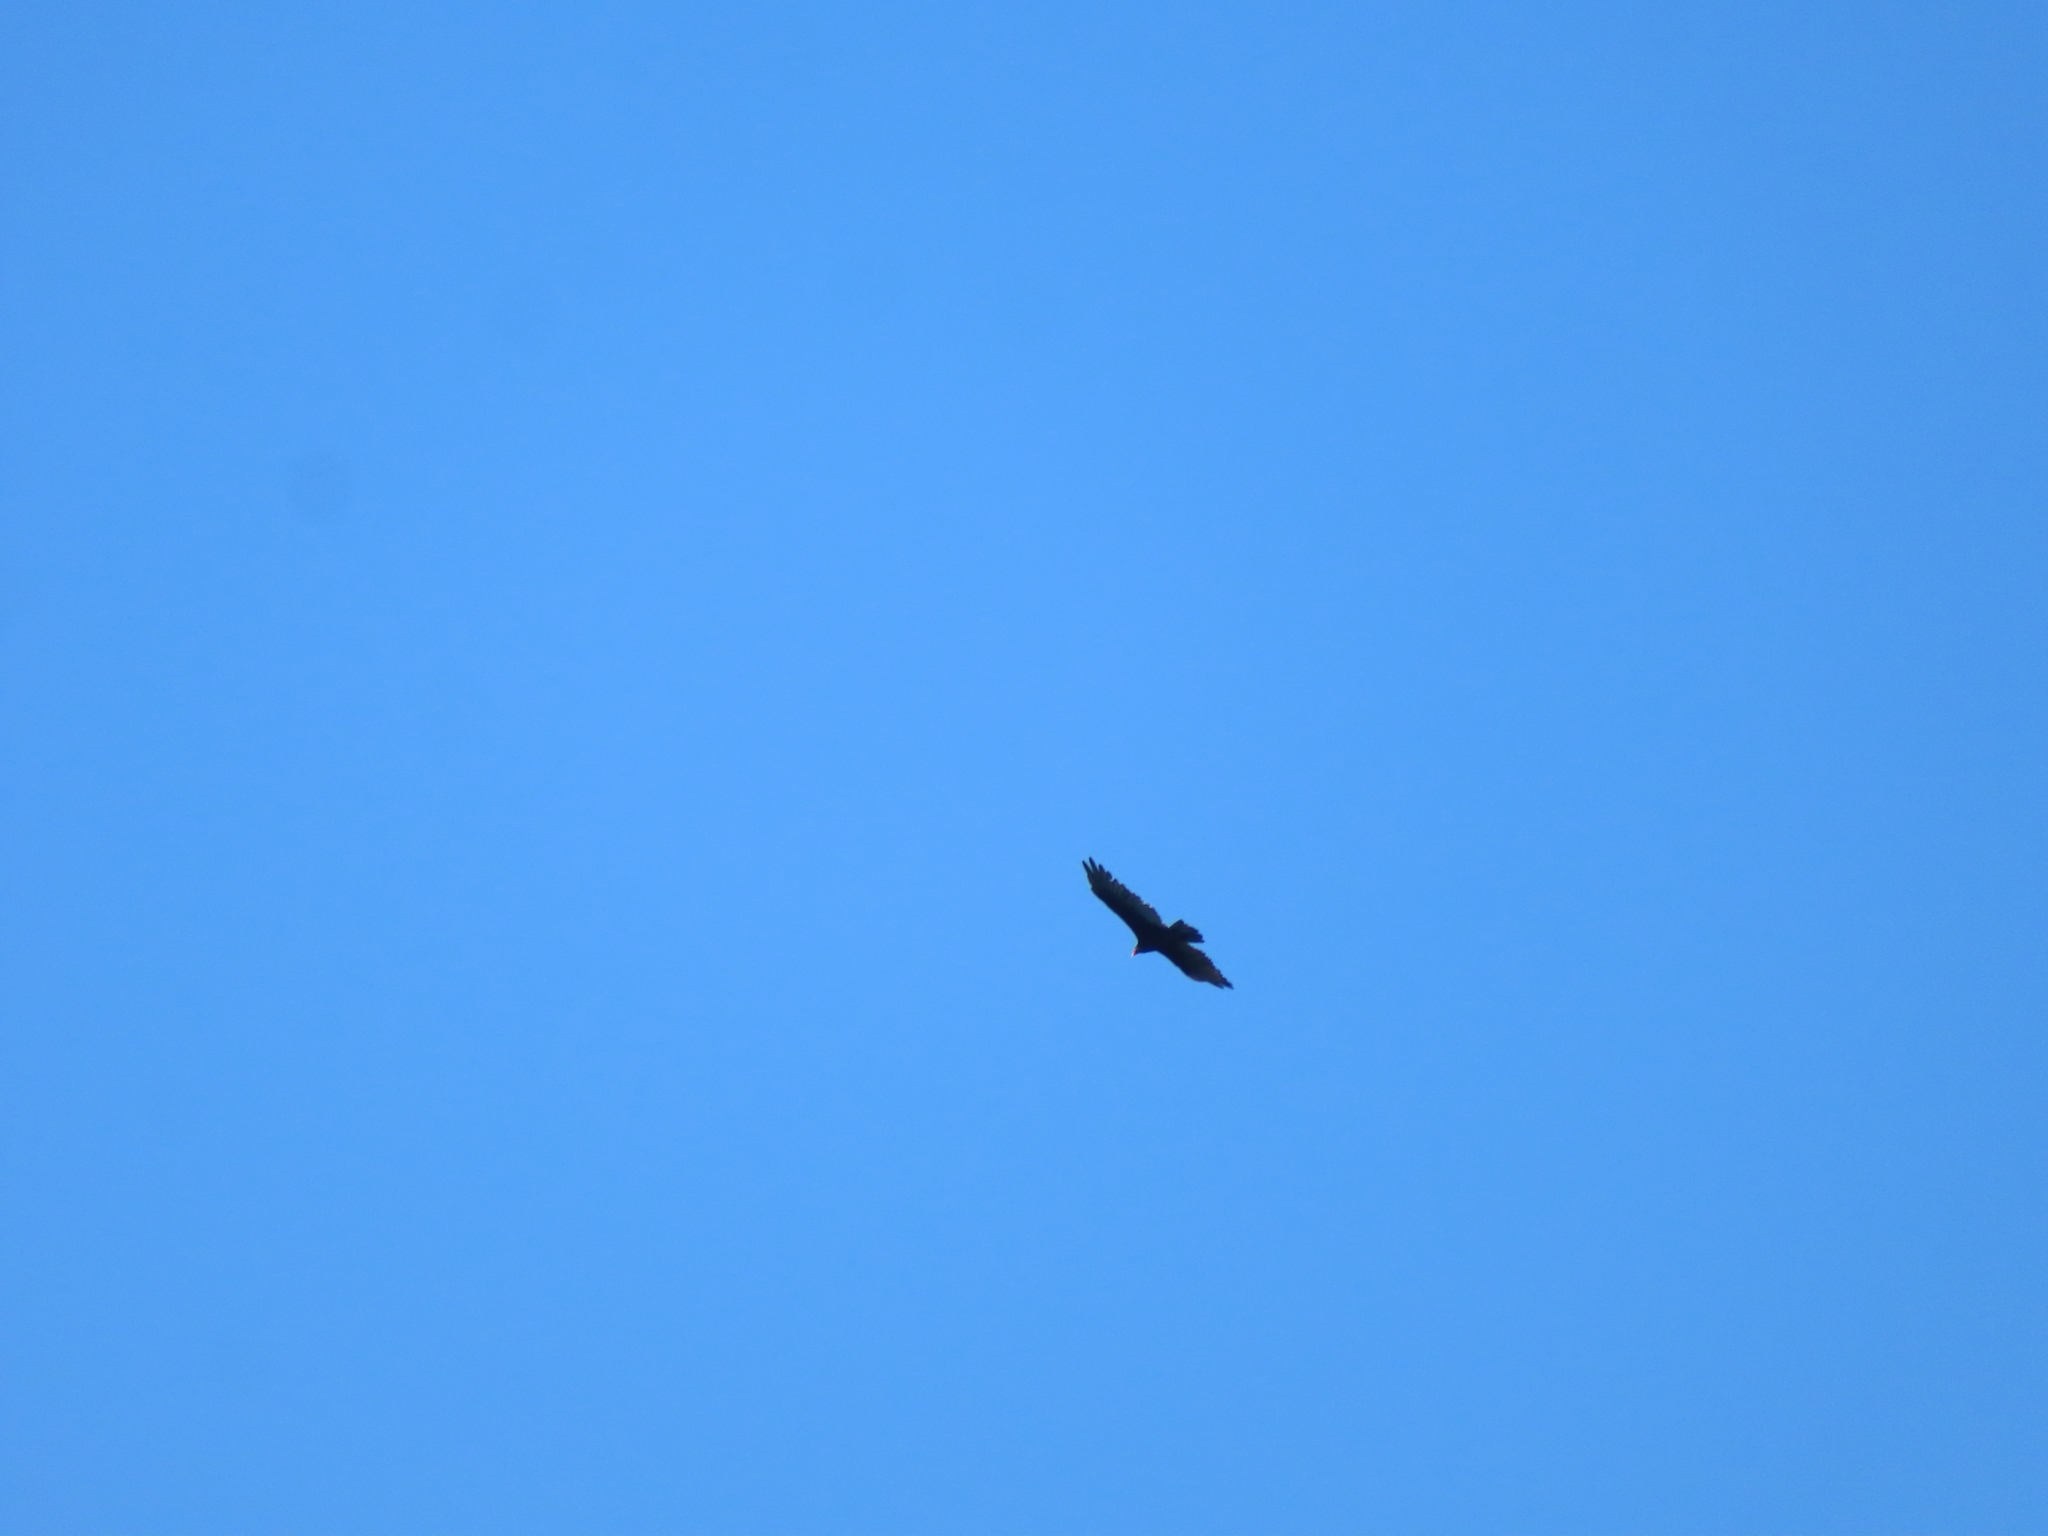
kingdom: Animalia
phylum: Chordata
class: Aves
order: Accipitriformes
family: Cathartidae
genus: Cathartes
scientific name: Cathartes aura
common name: Turkey vulture
